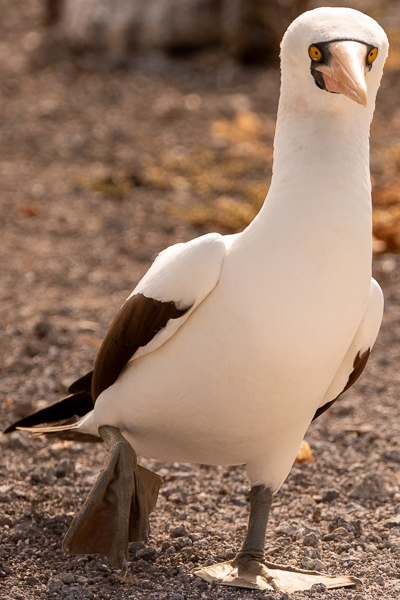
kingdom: Animalia
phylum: Chordata
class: Aves
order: Suliformes
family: Sulidae
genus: Sula
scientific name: Sula granti
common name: Nazca booby
